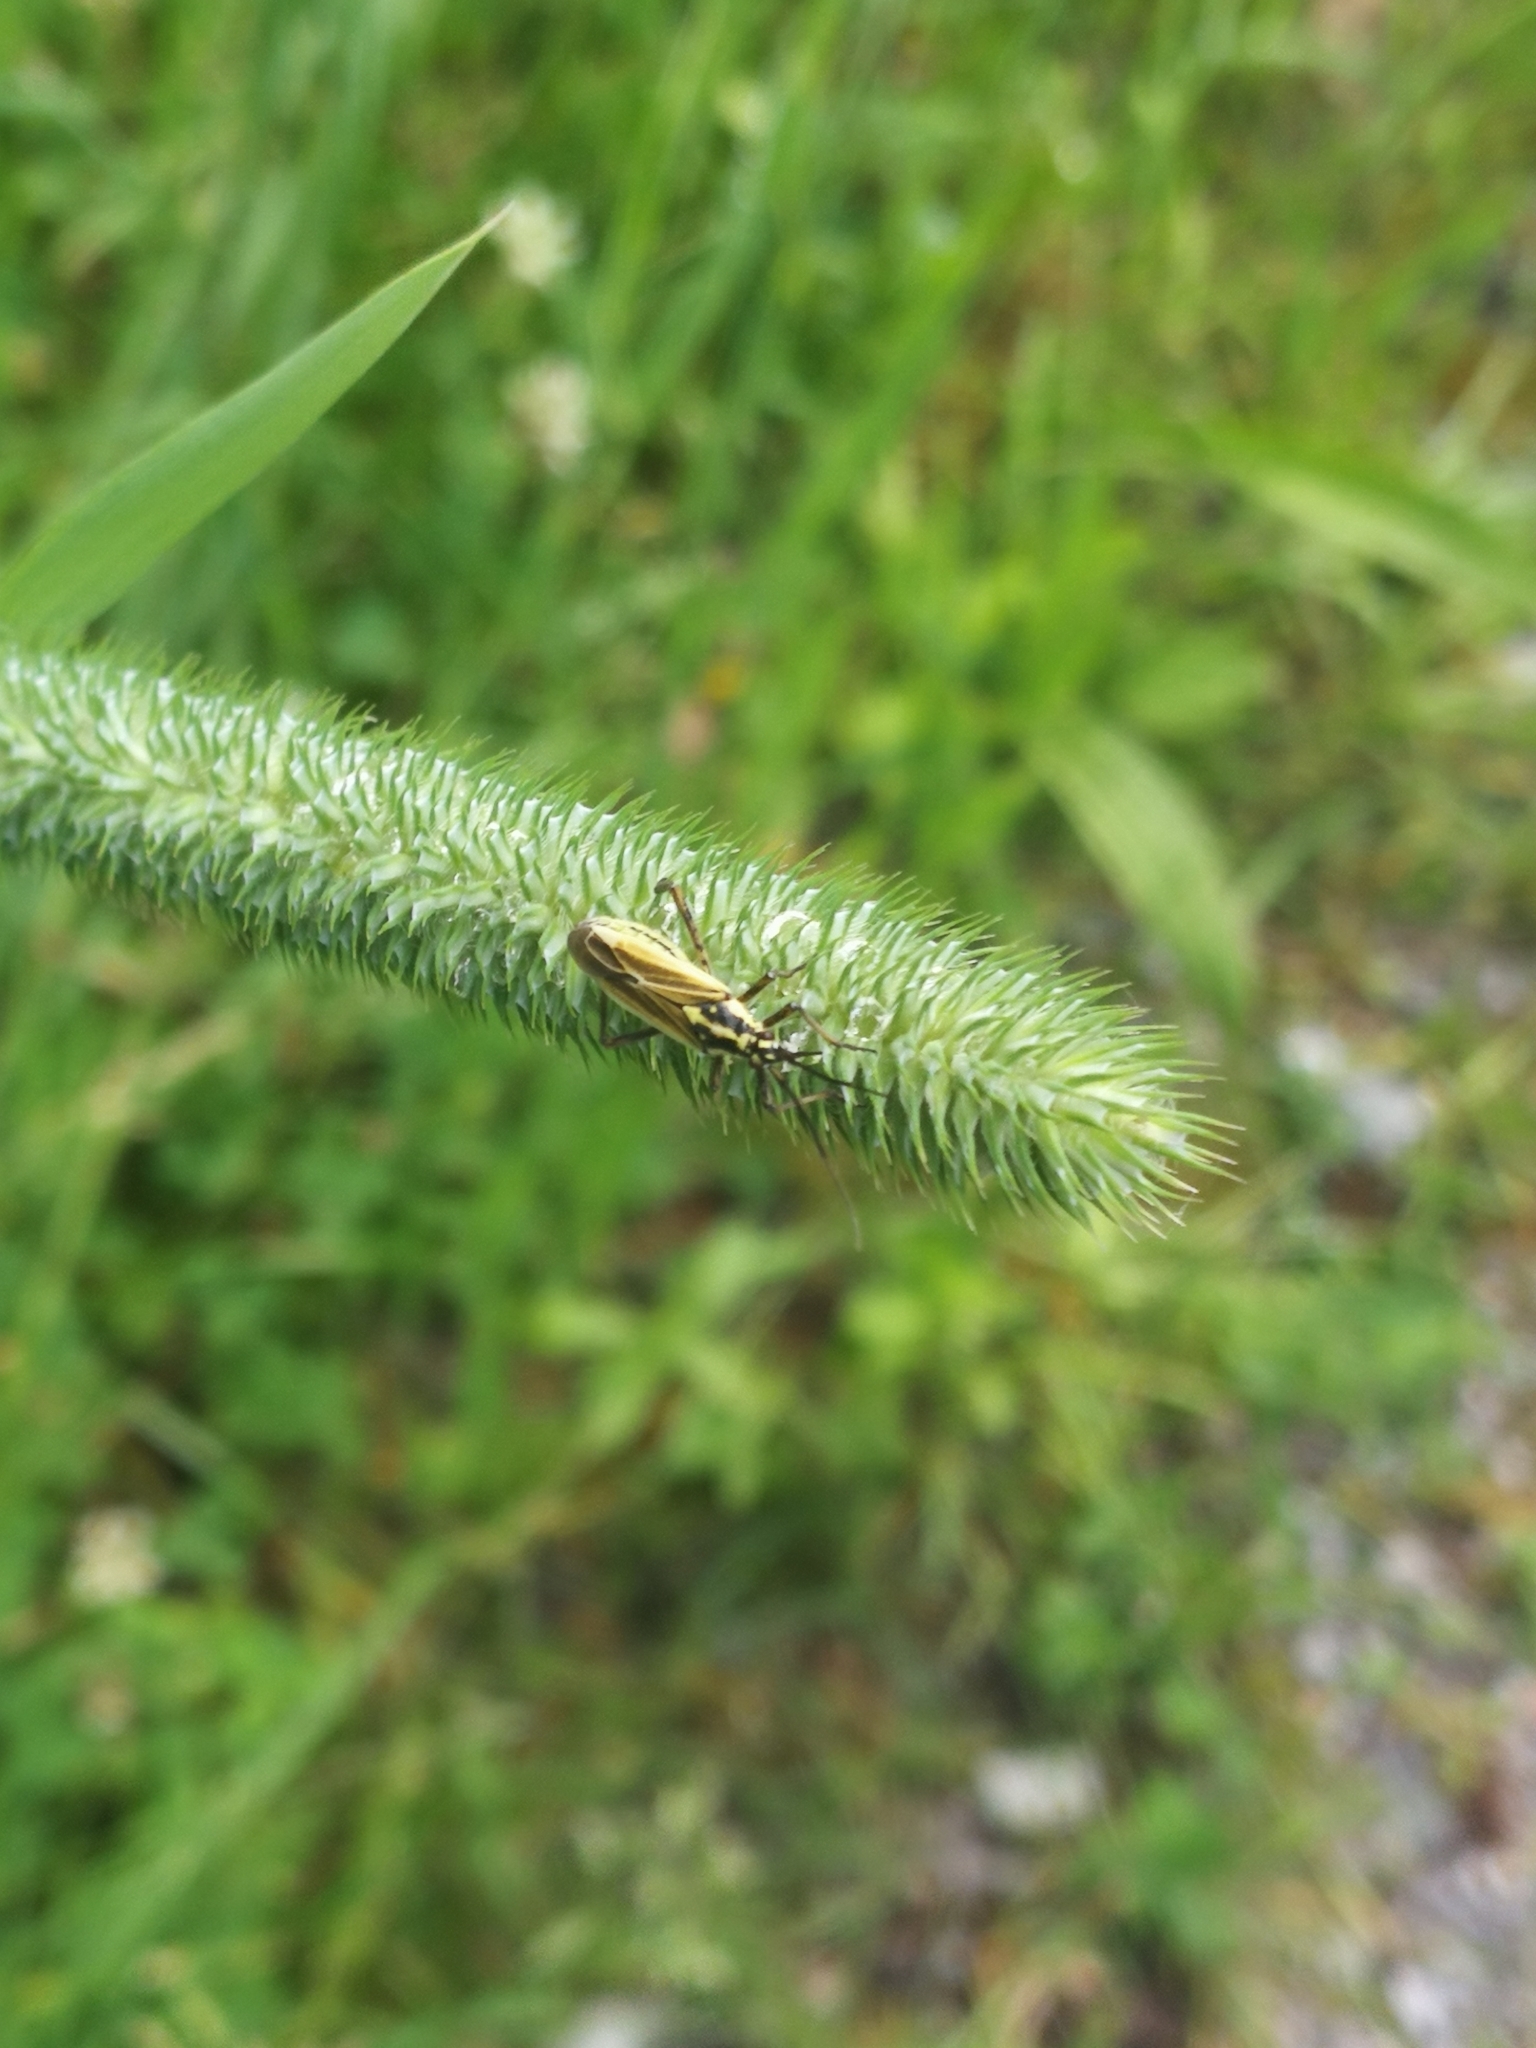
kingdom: Animalia
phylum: Arthropoda
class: Insecta
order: Hemiptera
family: Miridae
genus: Leptopterna
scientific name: Leptopterna dolabrata
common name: Meadow plant bug
